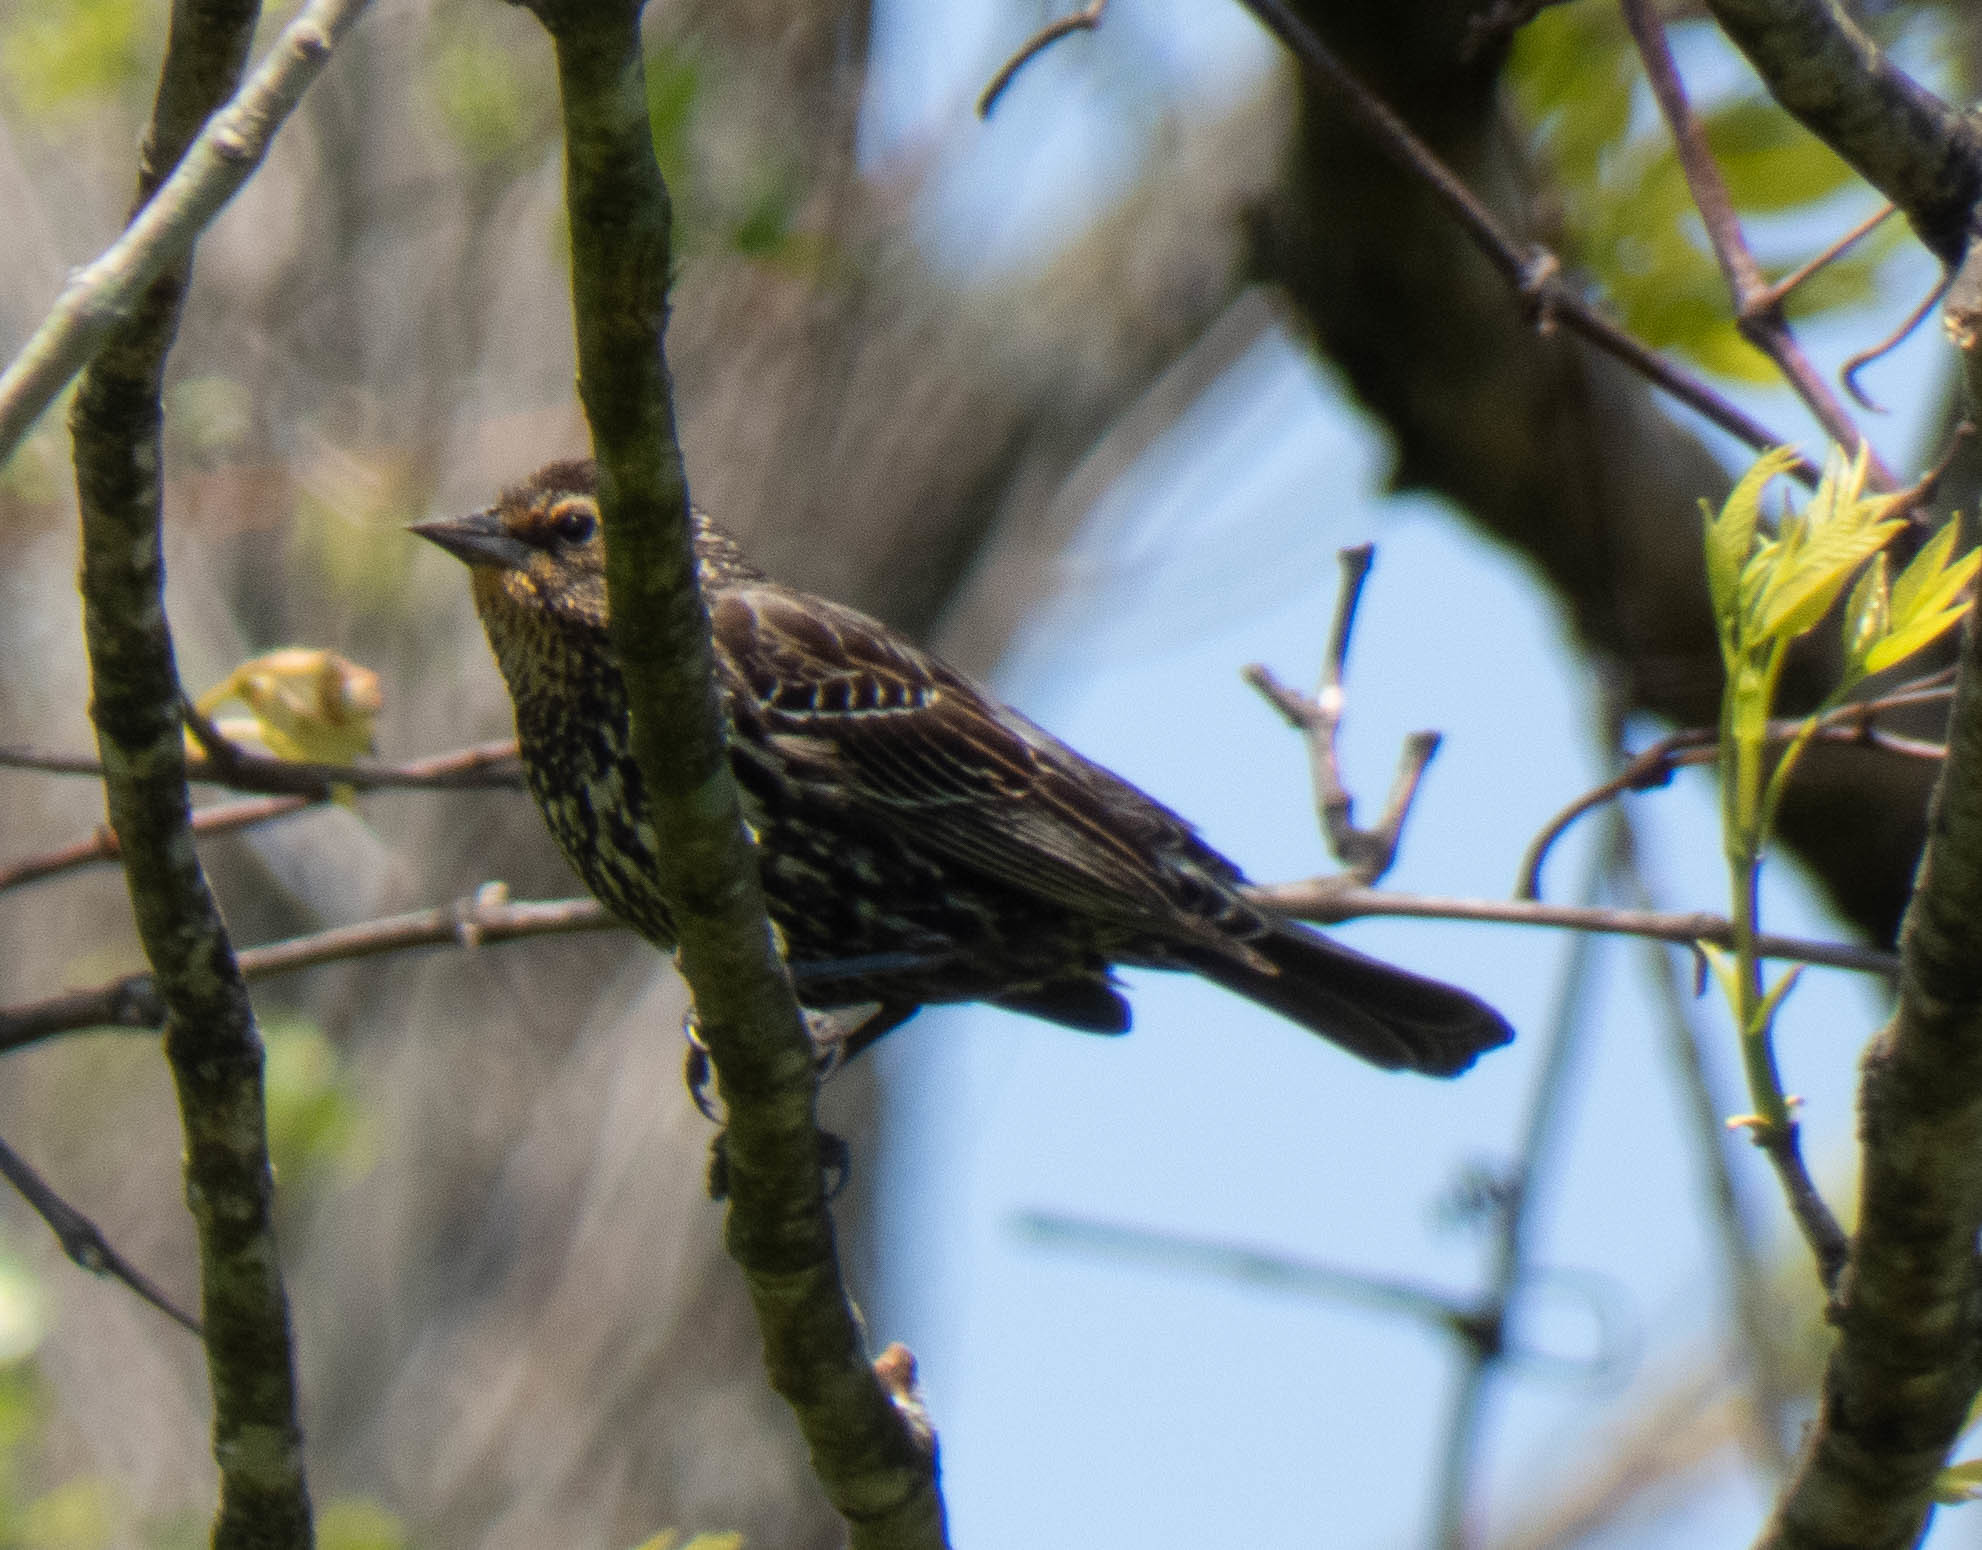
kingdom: Animalia
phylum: Chordata
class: Aves
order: Passeriformes
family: Icteridae
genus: Agelaius
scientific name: Agelaius phoeniceus
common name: Red-winged blackbird
